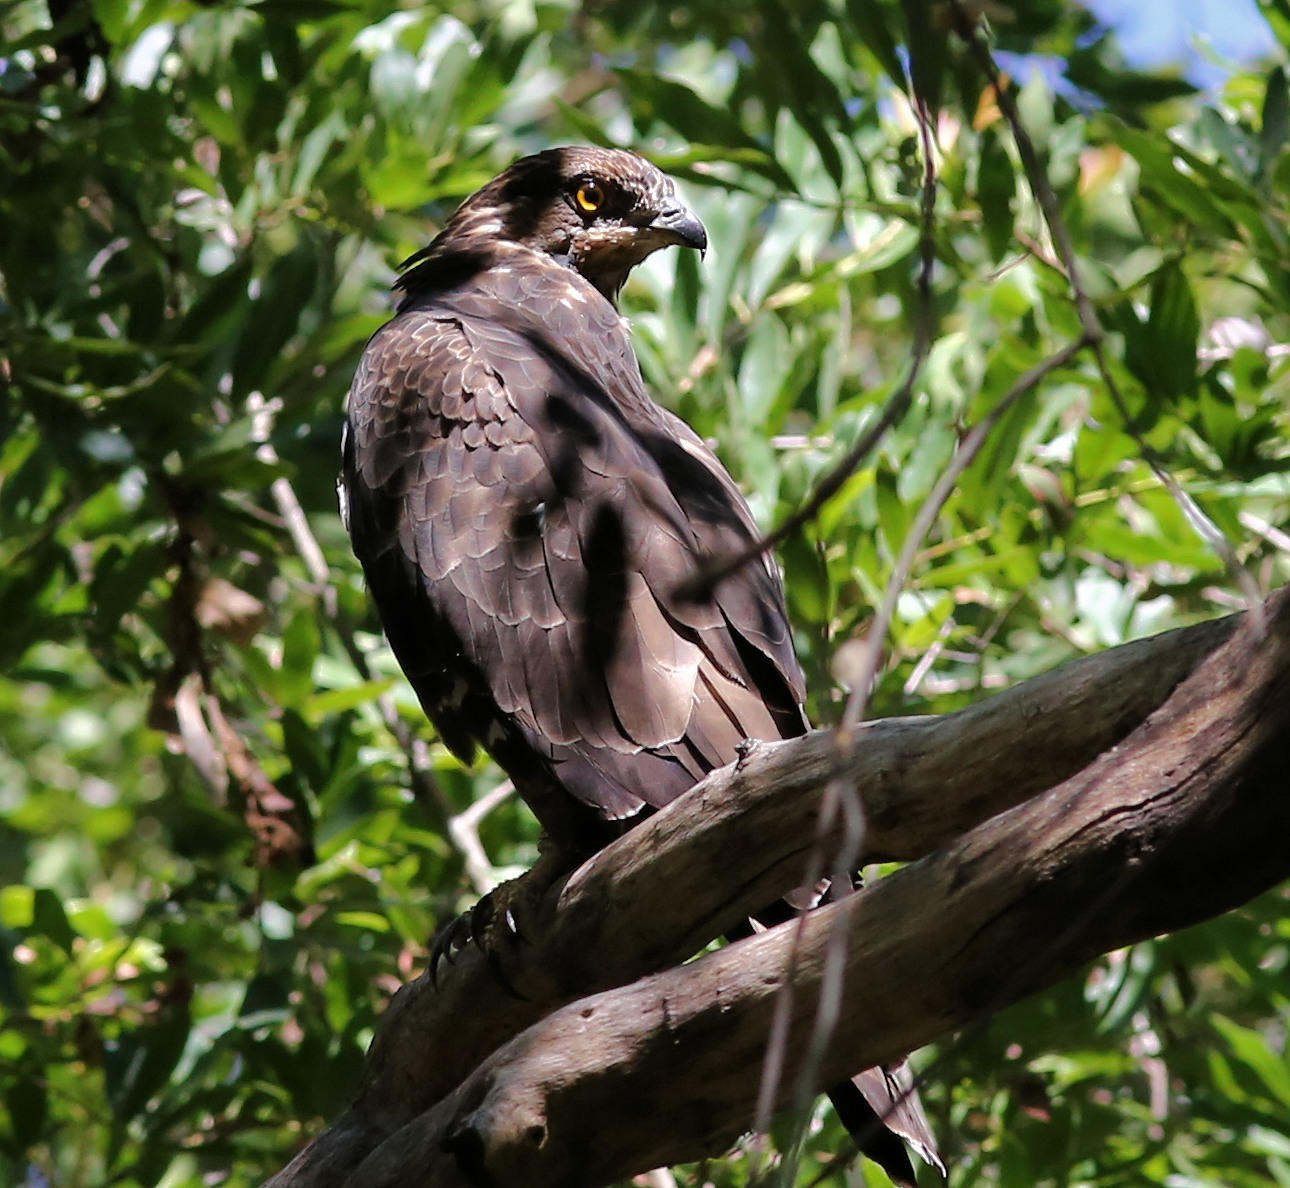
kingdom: Animalia
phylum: Chordata
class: Aves
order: Accipitriformes
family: Accipitridae
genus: Pernis
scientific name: Pernis apivorus
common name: European honey buzzard
